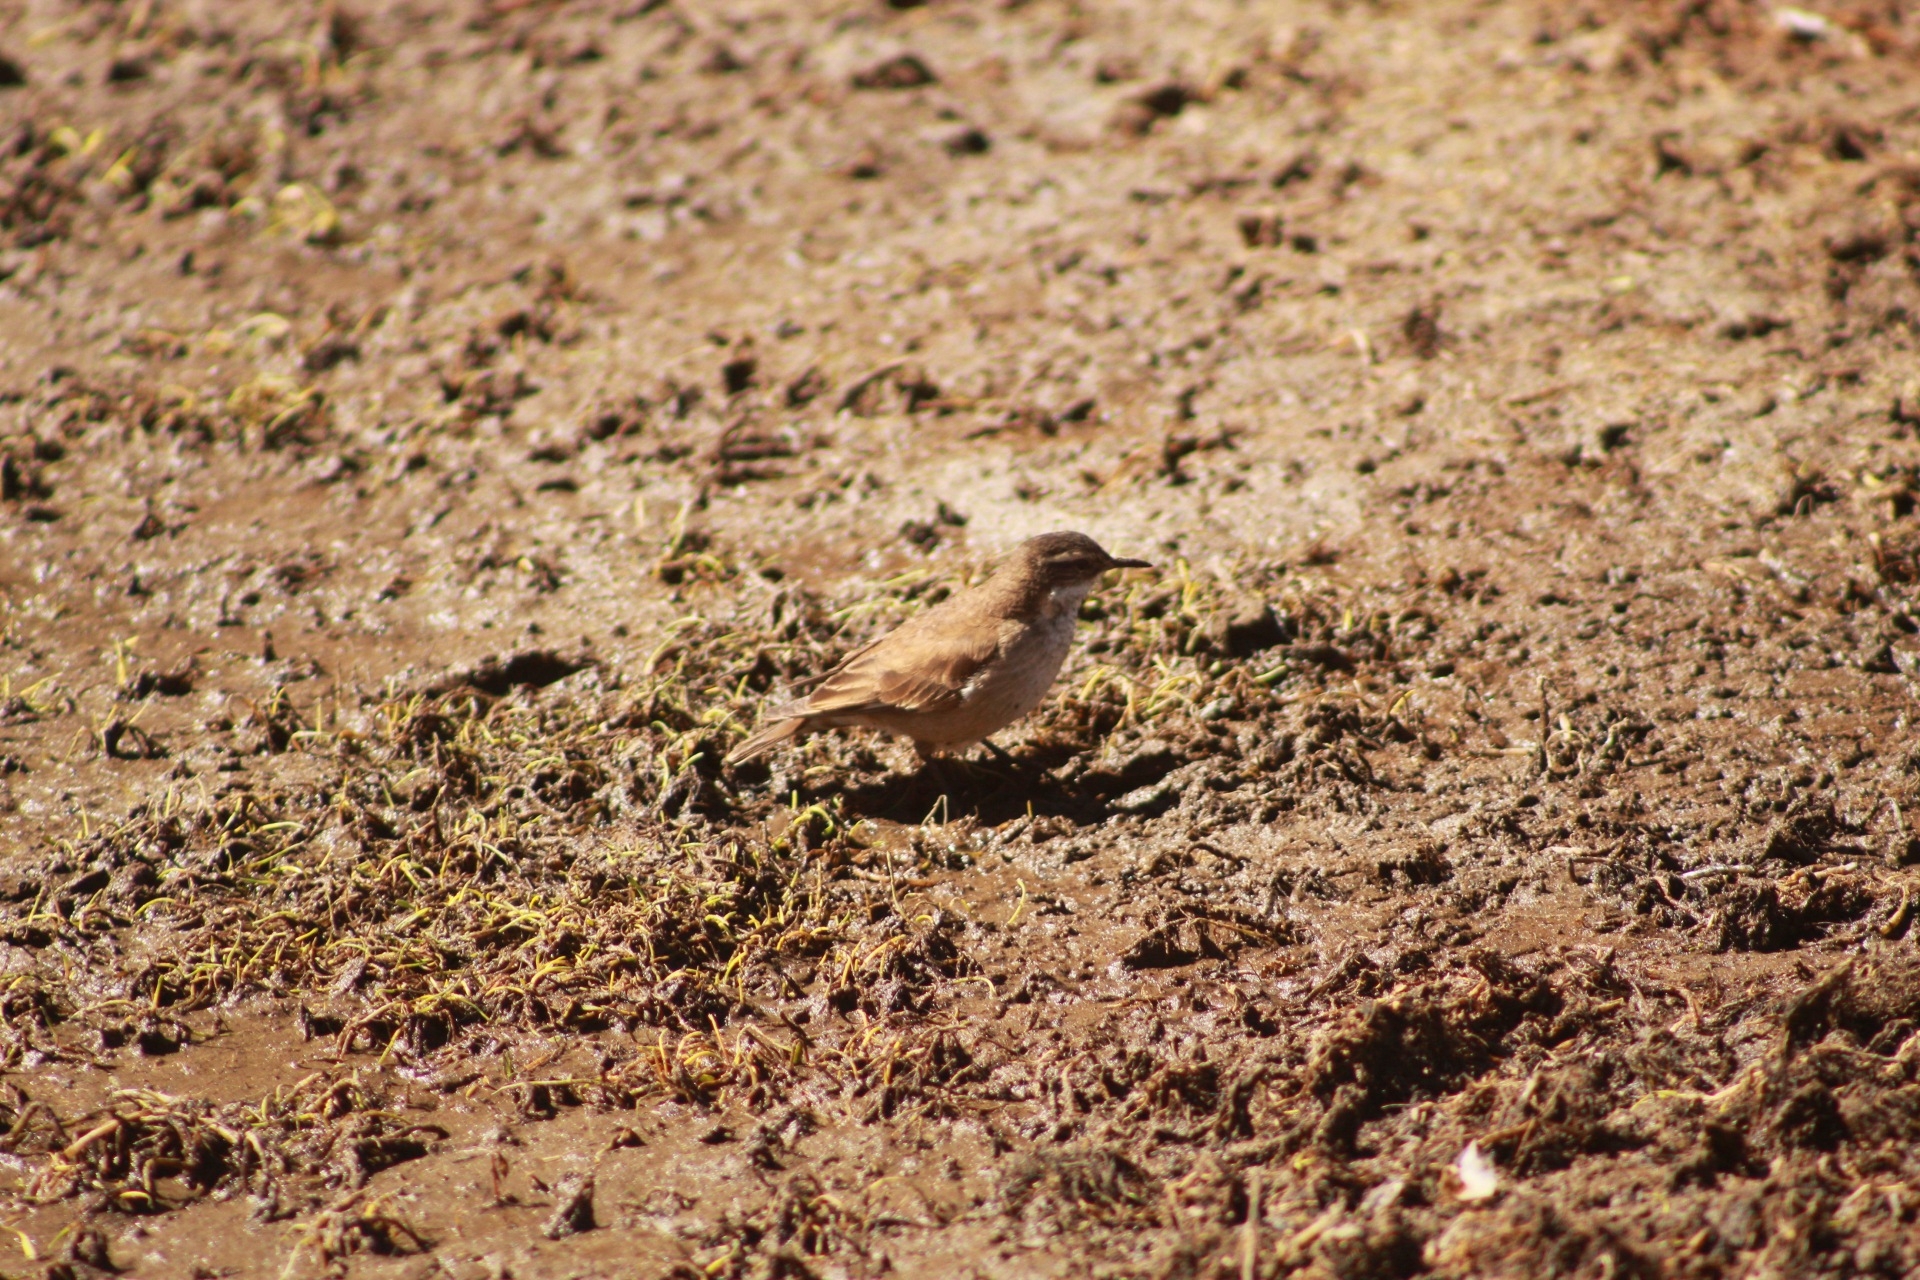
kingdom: Animalia
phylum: Chordata
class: Aves
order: Passeriformes
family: Furnariidae
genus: Cinclodes
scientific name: Cinclodes fuscus
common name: Buff-winged cinclodes
